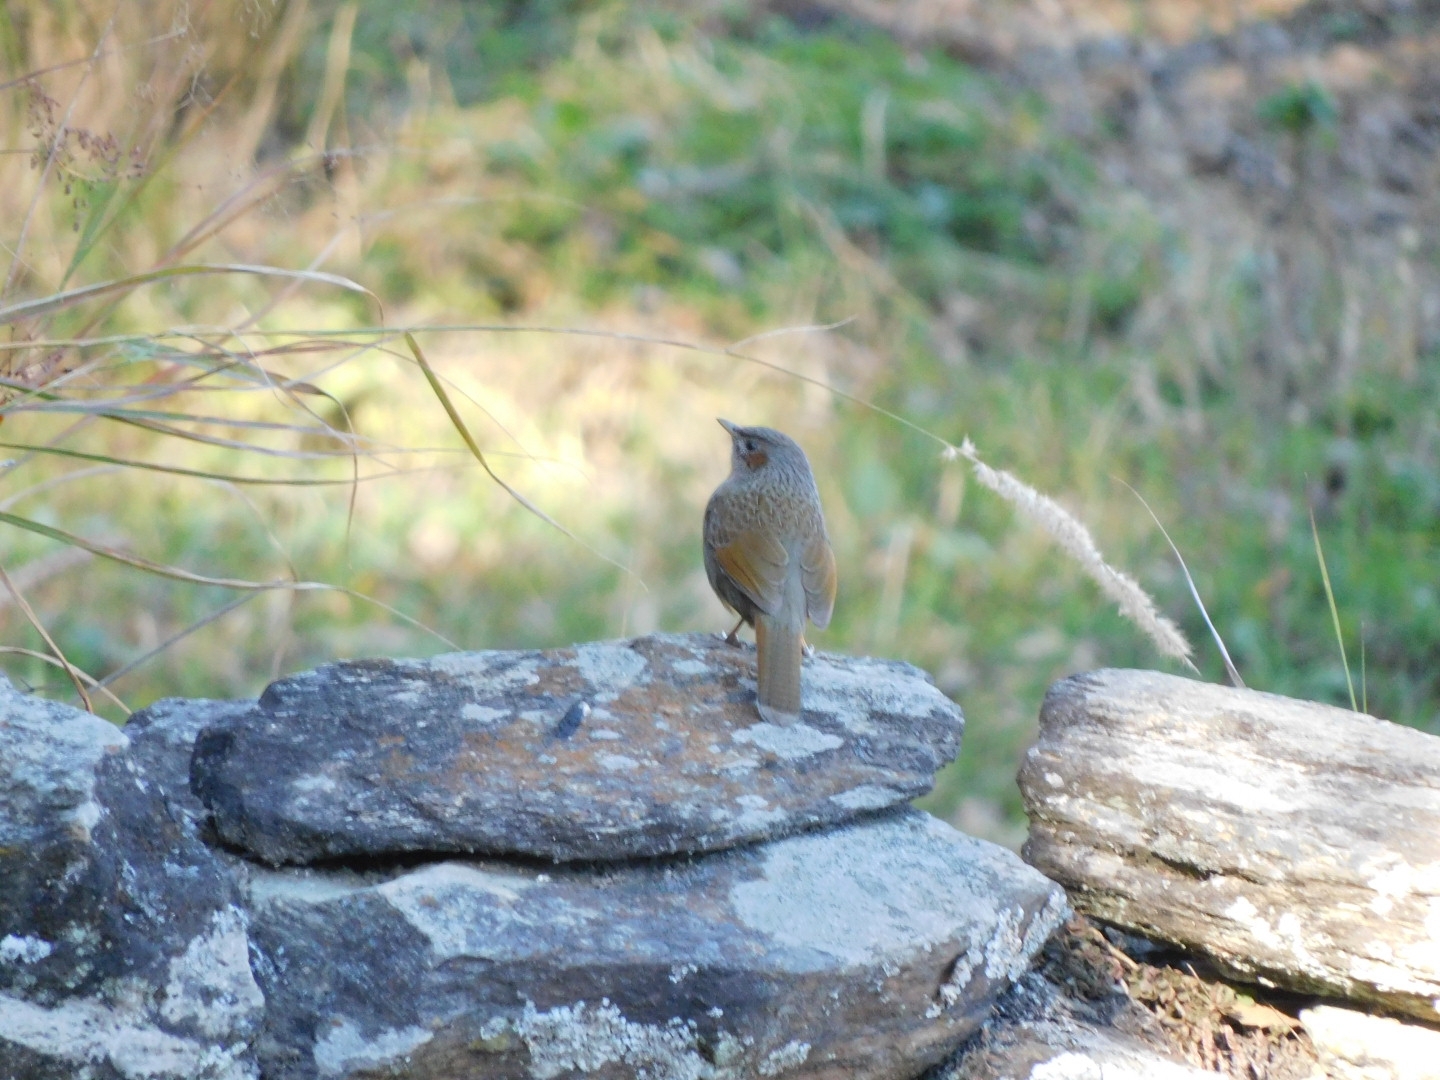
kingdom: Animalia
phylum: Chordata
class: Aves
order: Passeriformes
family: Leiothrichidae
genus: Trochalopteron
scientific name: Trochalopteron lineatum
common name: Streaked laughingthrush
